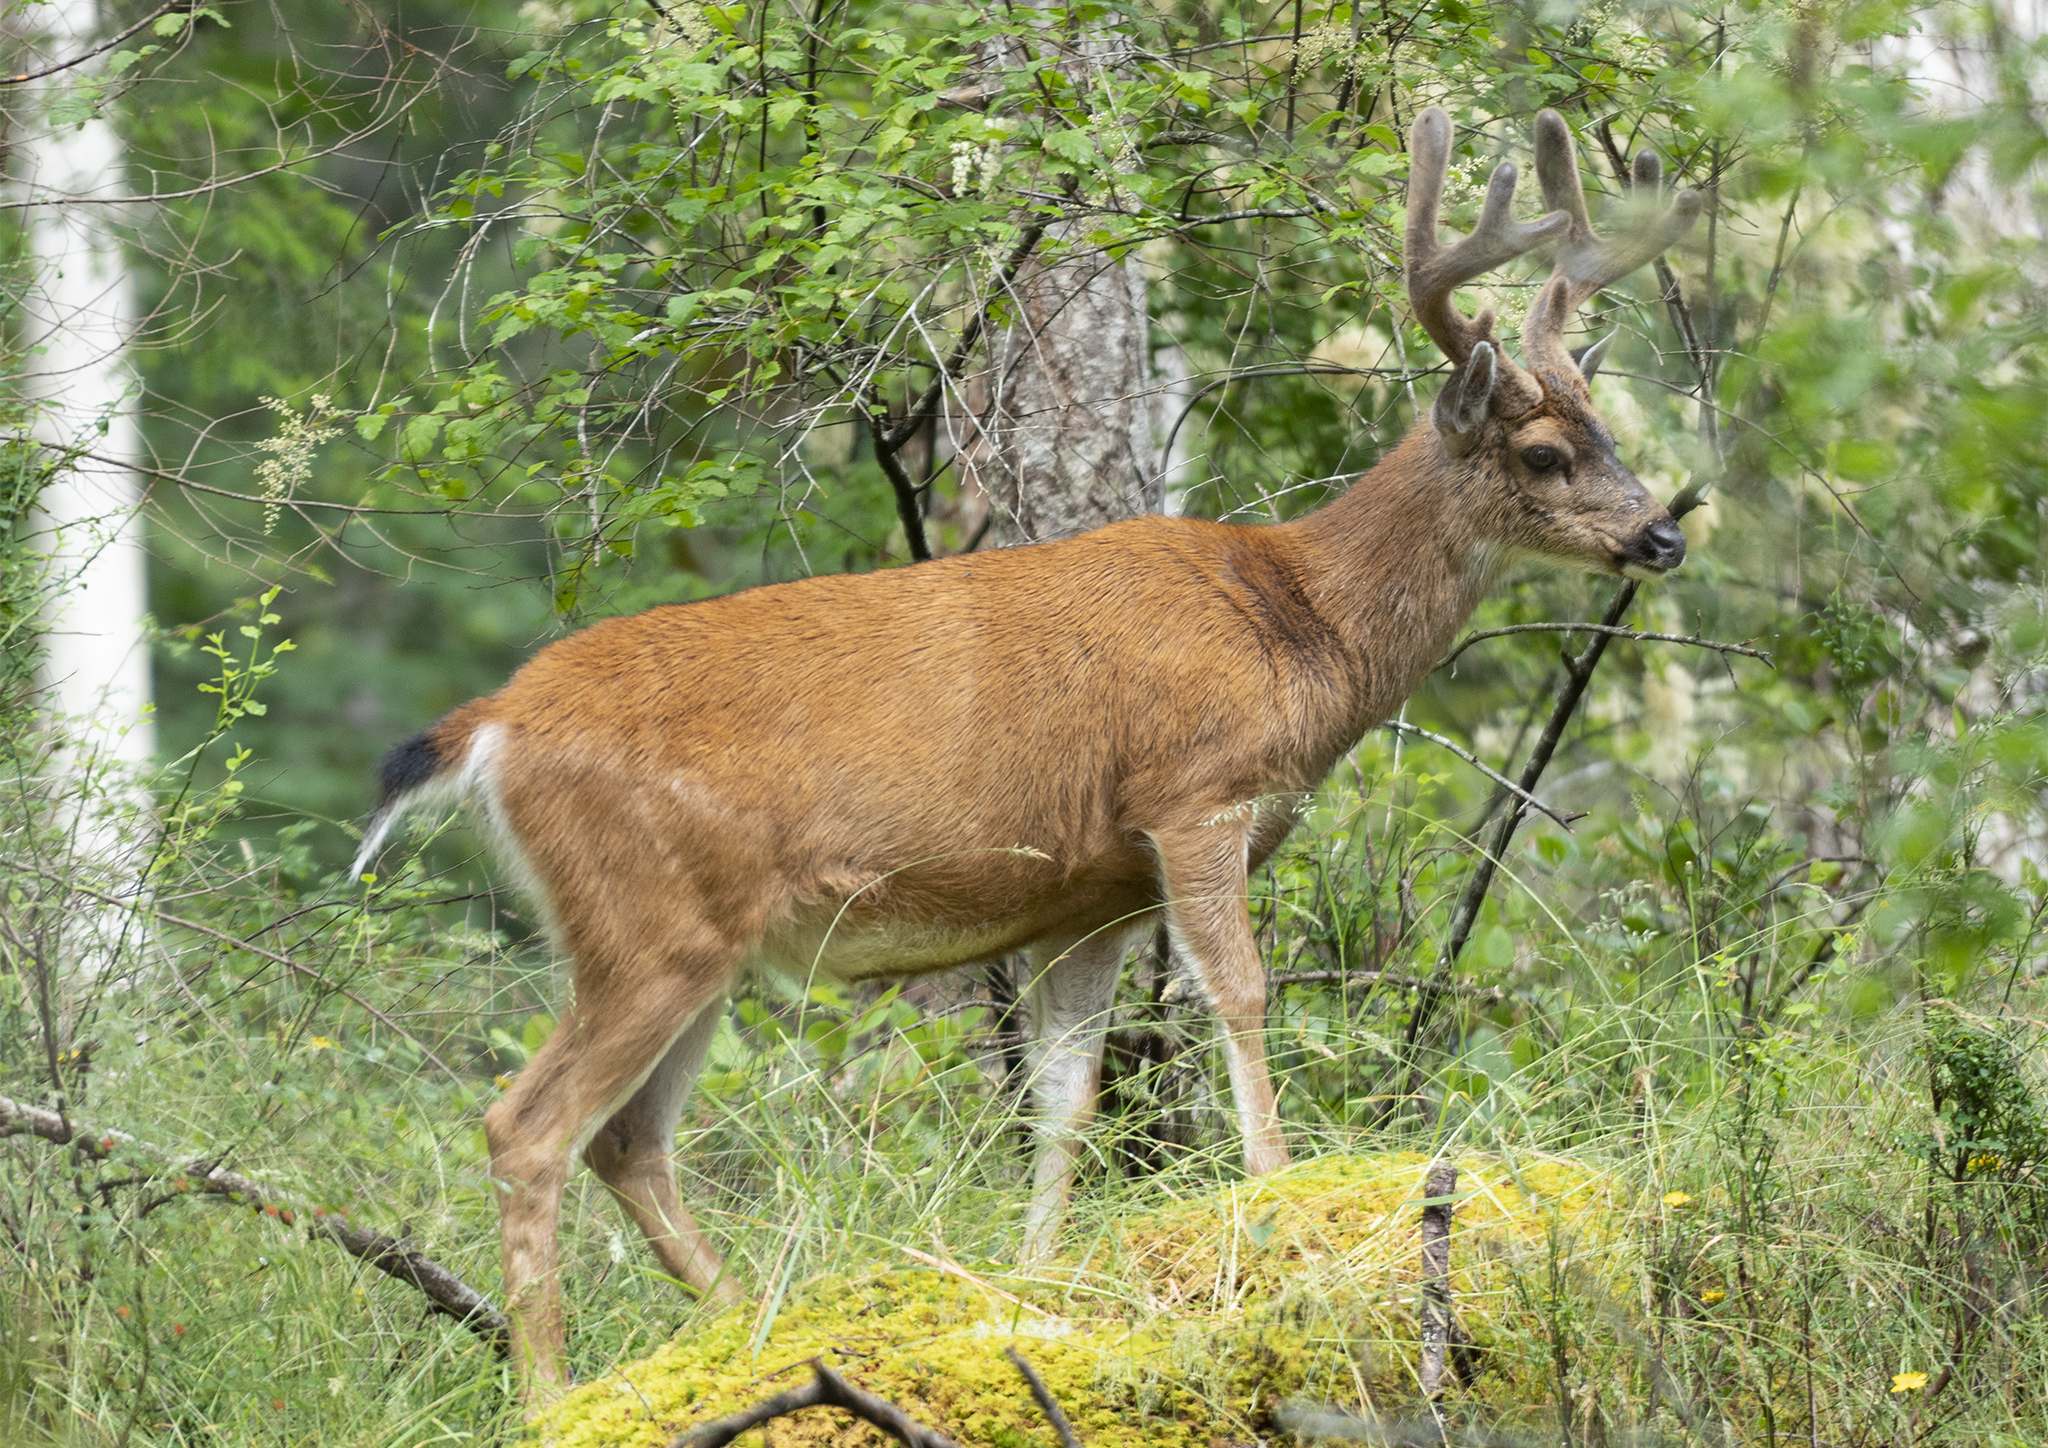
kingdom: Animalia
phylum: Chordata
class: Mammalia
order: Artiodactyla
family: Cervidae
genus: Odocoileus
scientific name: Odocoileus hemionus
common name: Mule deer
